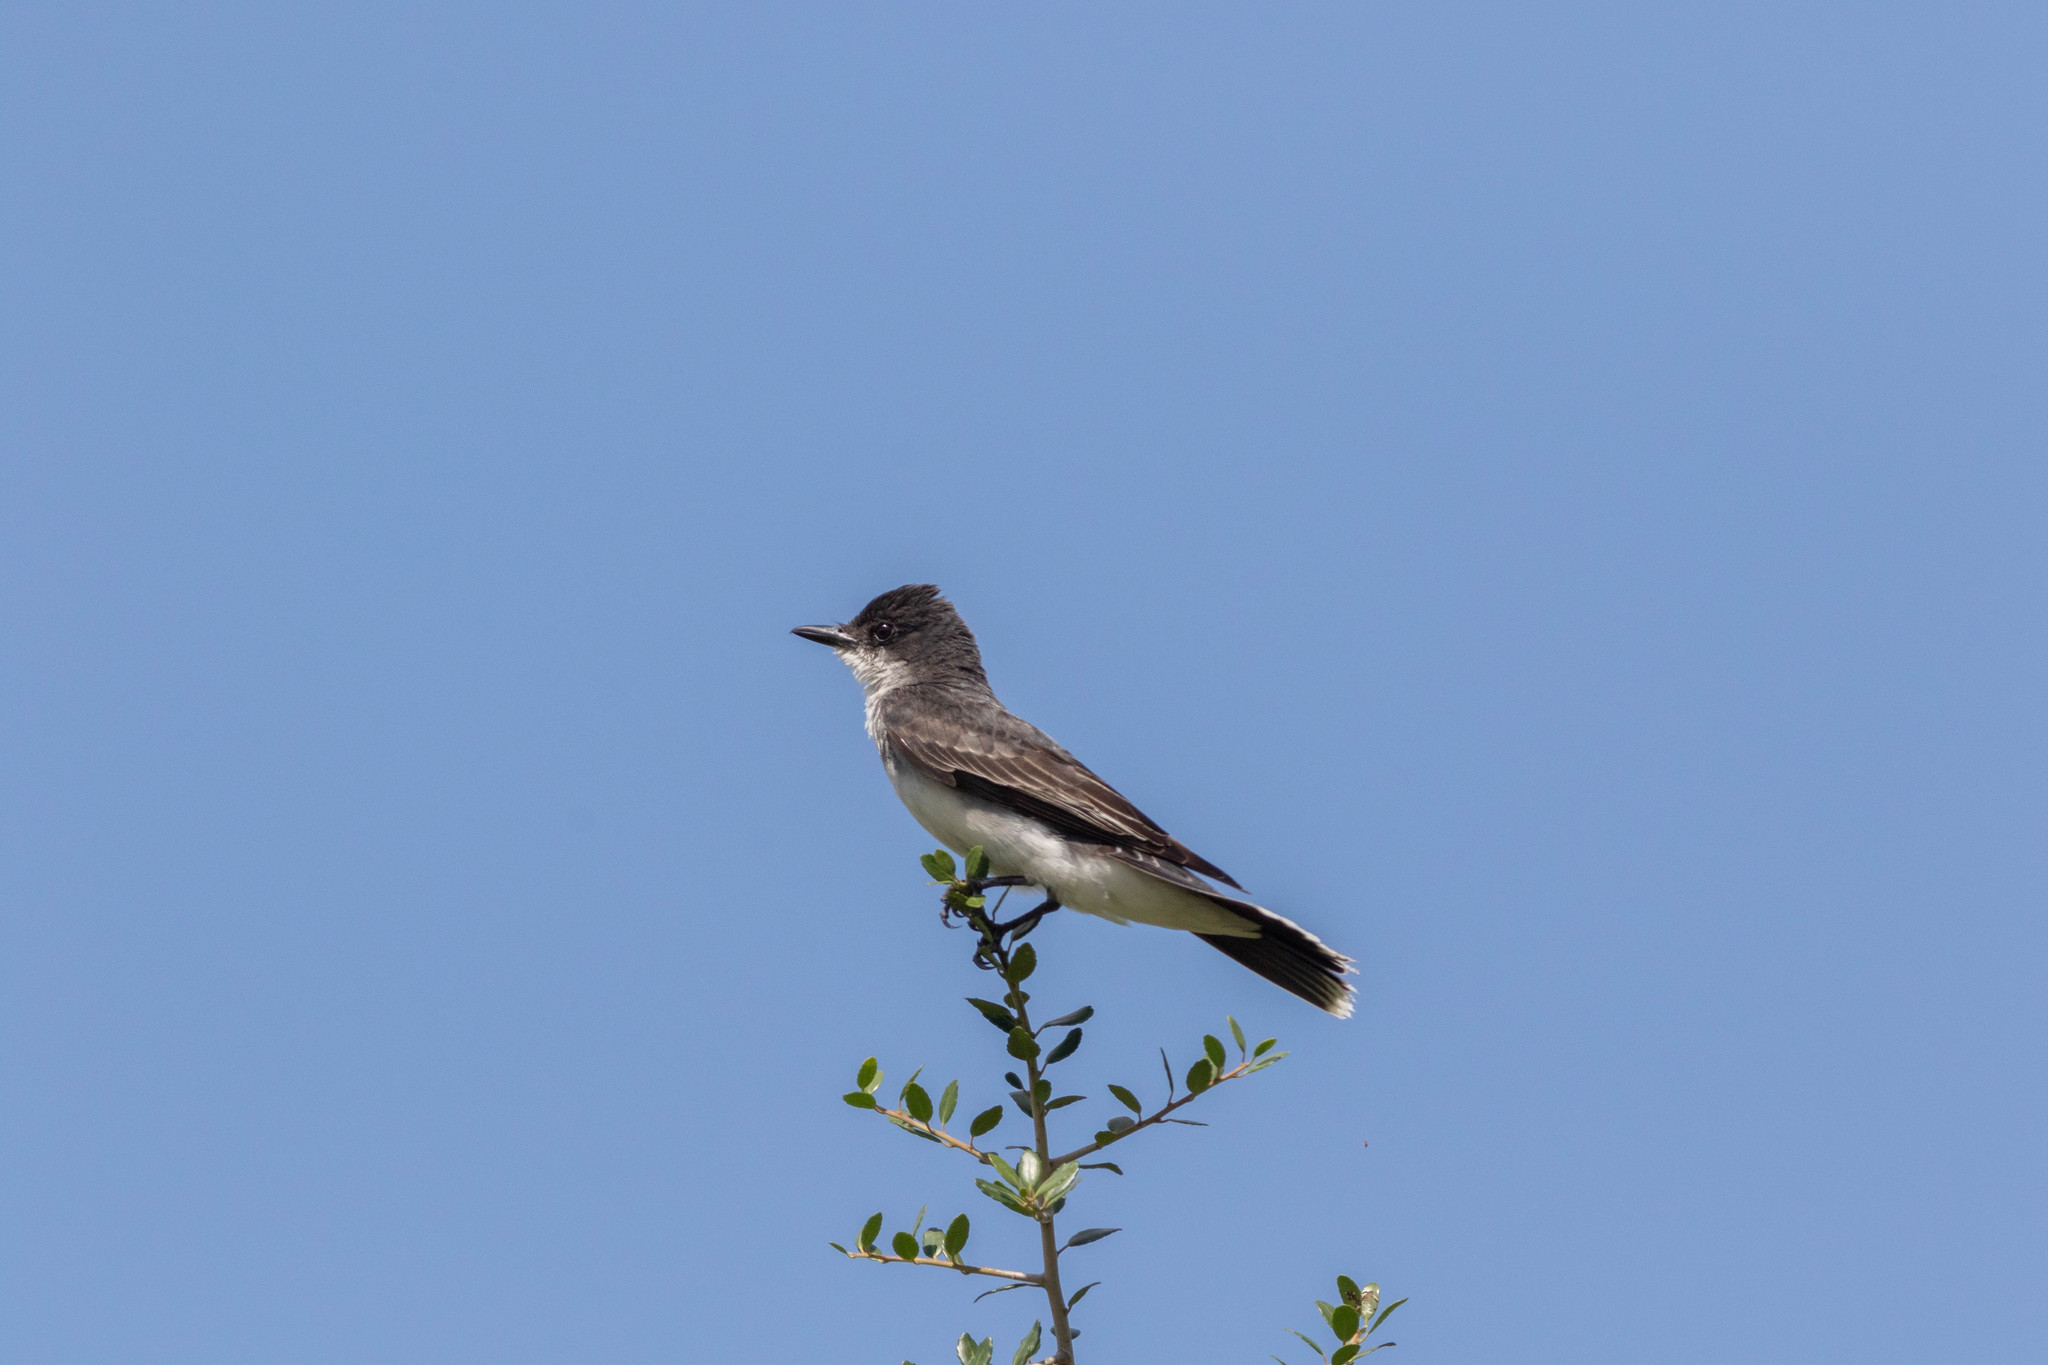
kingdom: Animalia
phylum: Chordata
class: Aves
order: Passeriformes
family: Tyrannidae
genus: Tyrannus
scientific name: Tyrannus tyrannus
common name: Eastern kingbird
